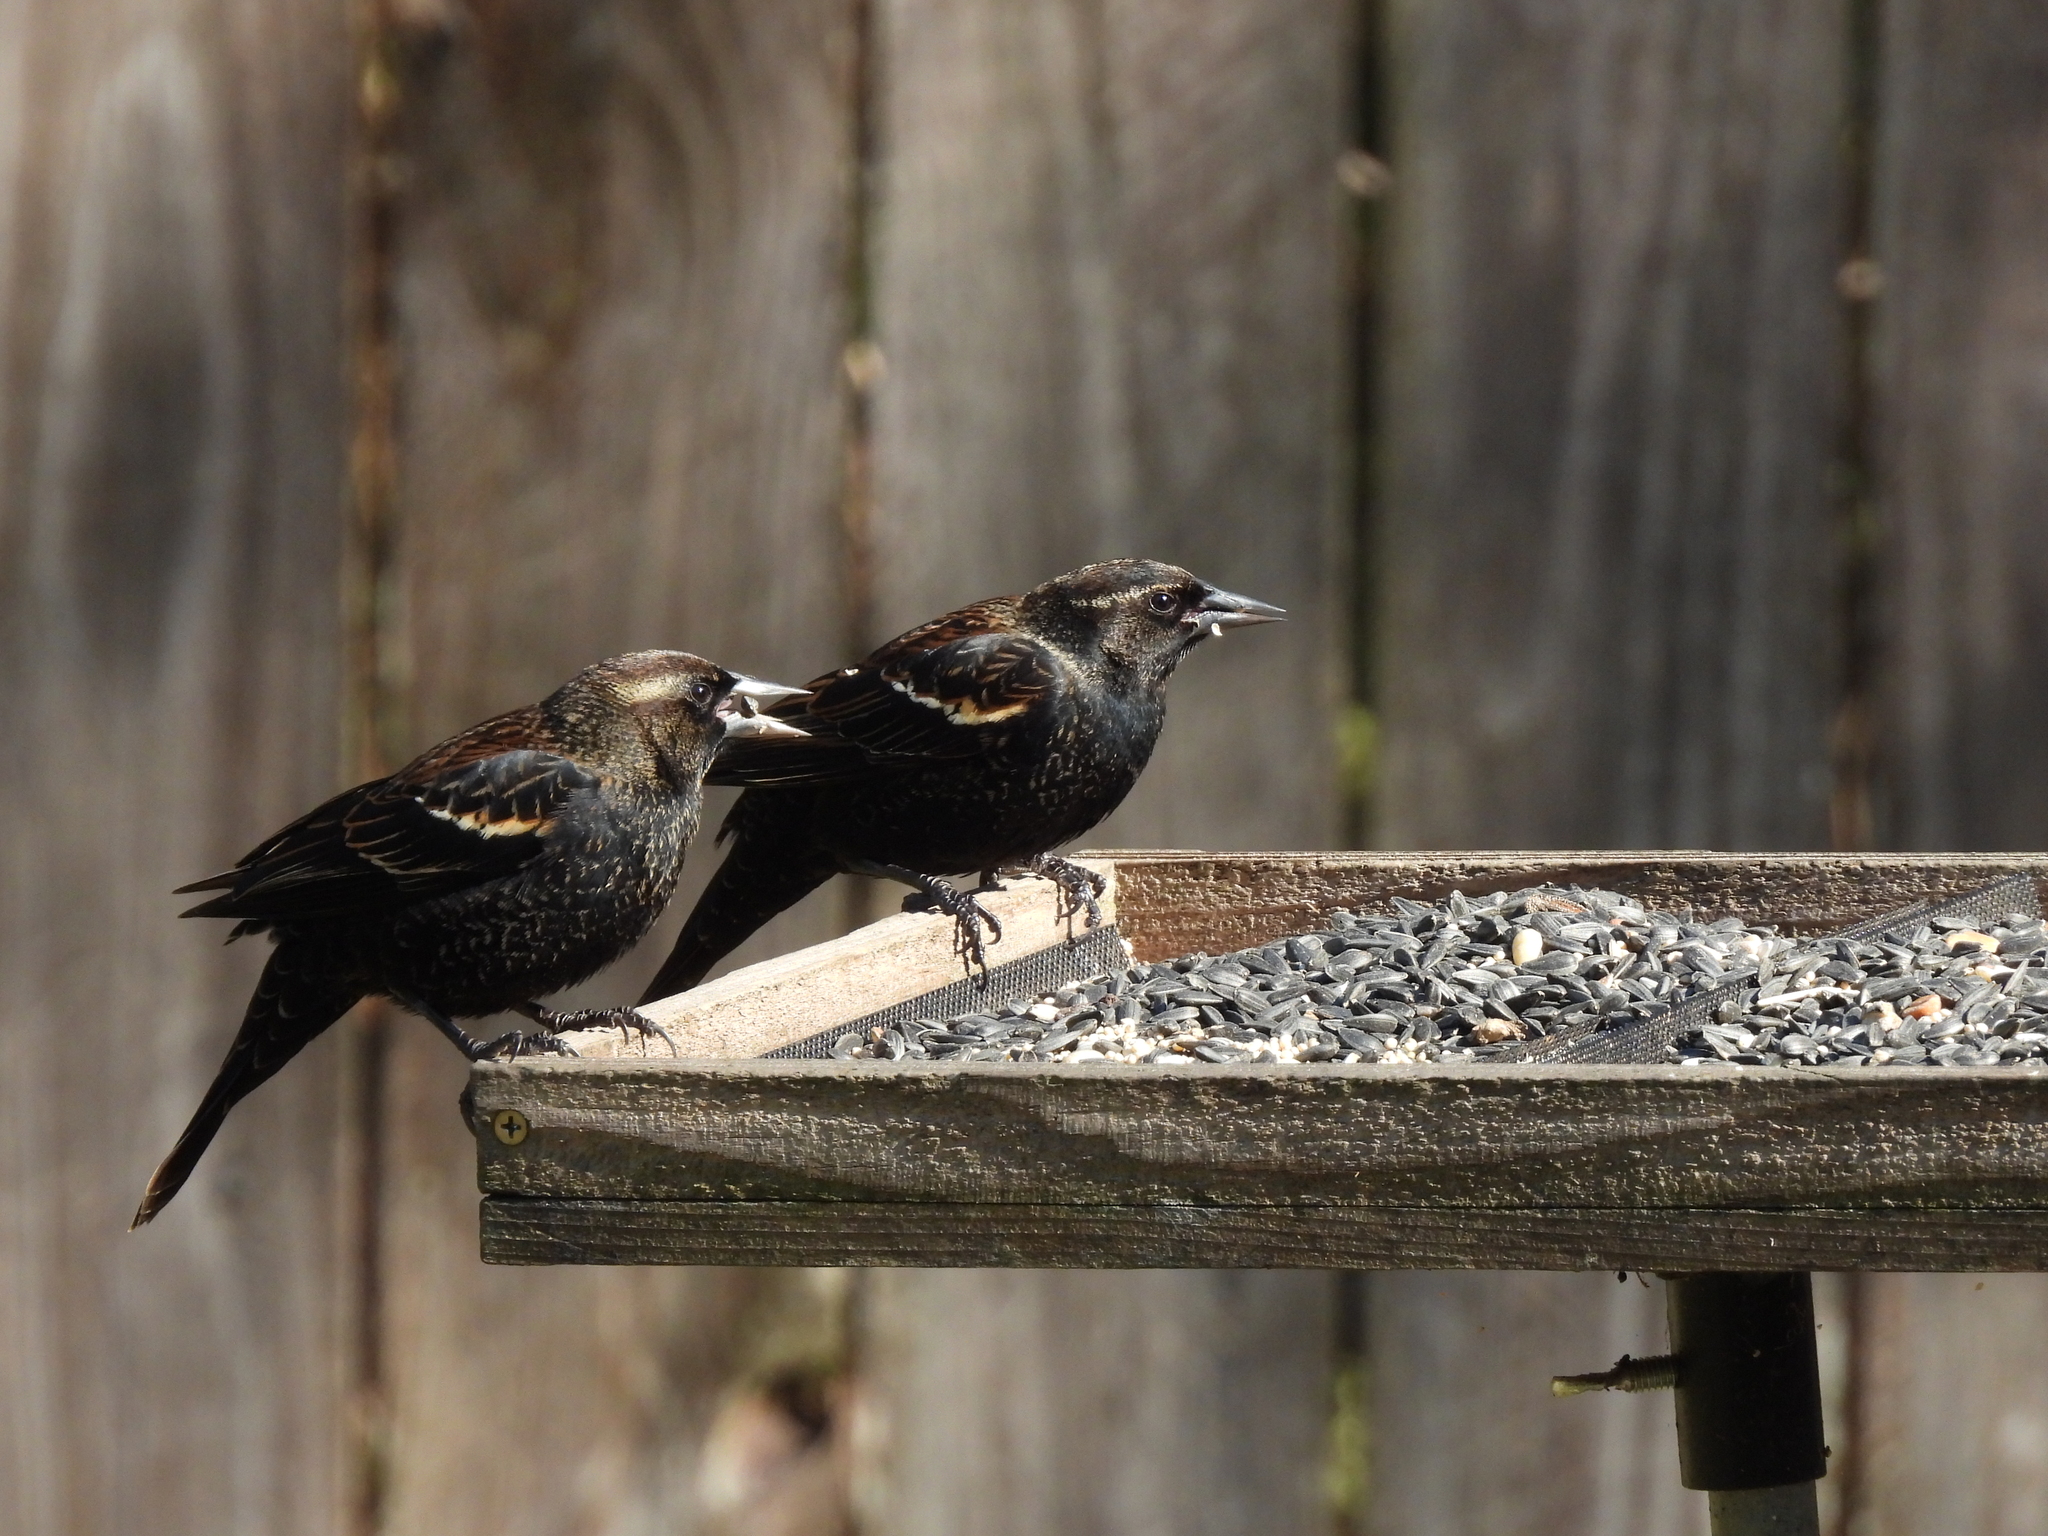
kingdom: Animalia
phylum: Chordata
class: Aves
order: Passeriformes
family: Icteridae
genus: Agelaius
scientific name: Agelaius phoeniceus
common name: Red-winged blackbird
